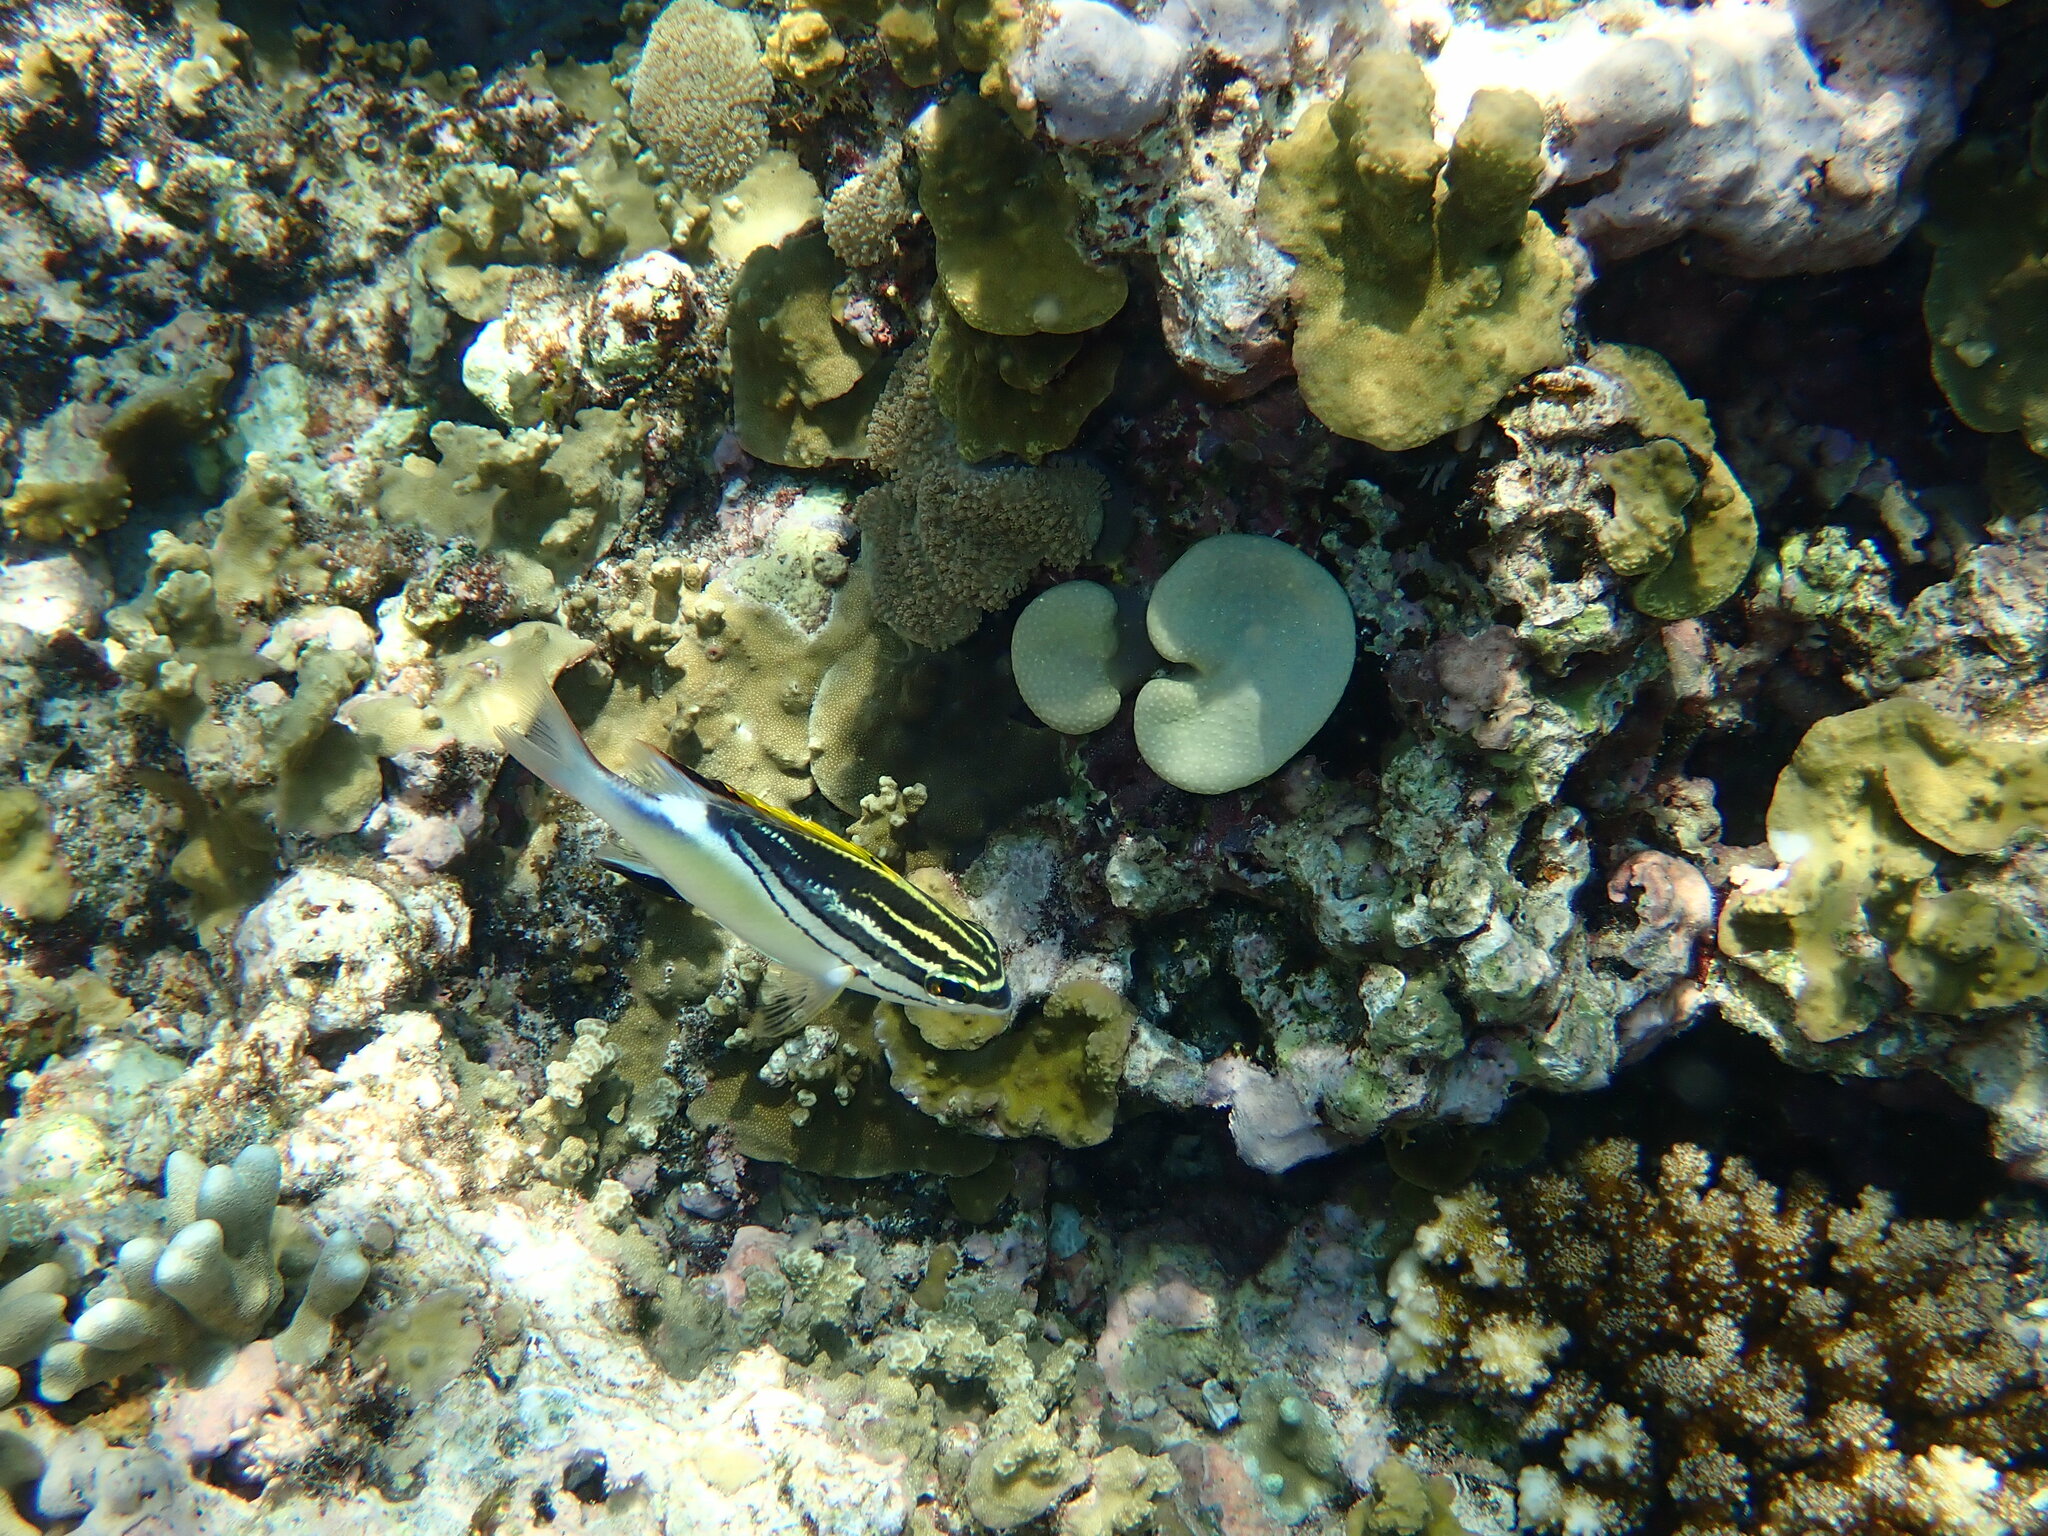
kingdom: Animalia
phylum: Chordata
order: Perciformes
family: Nemipteridae
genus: Scolopsis
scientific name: Scolopsis bilineata
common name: Two-lined monocle bream
